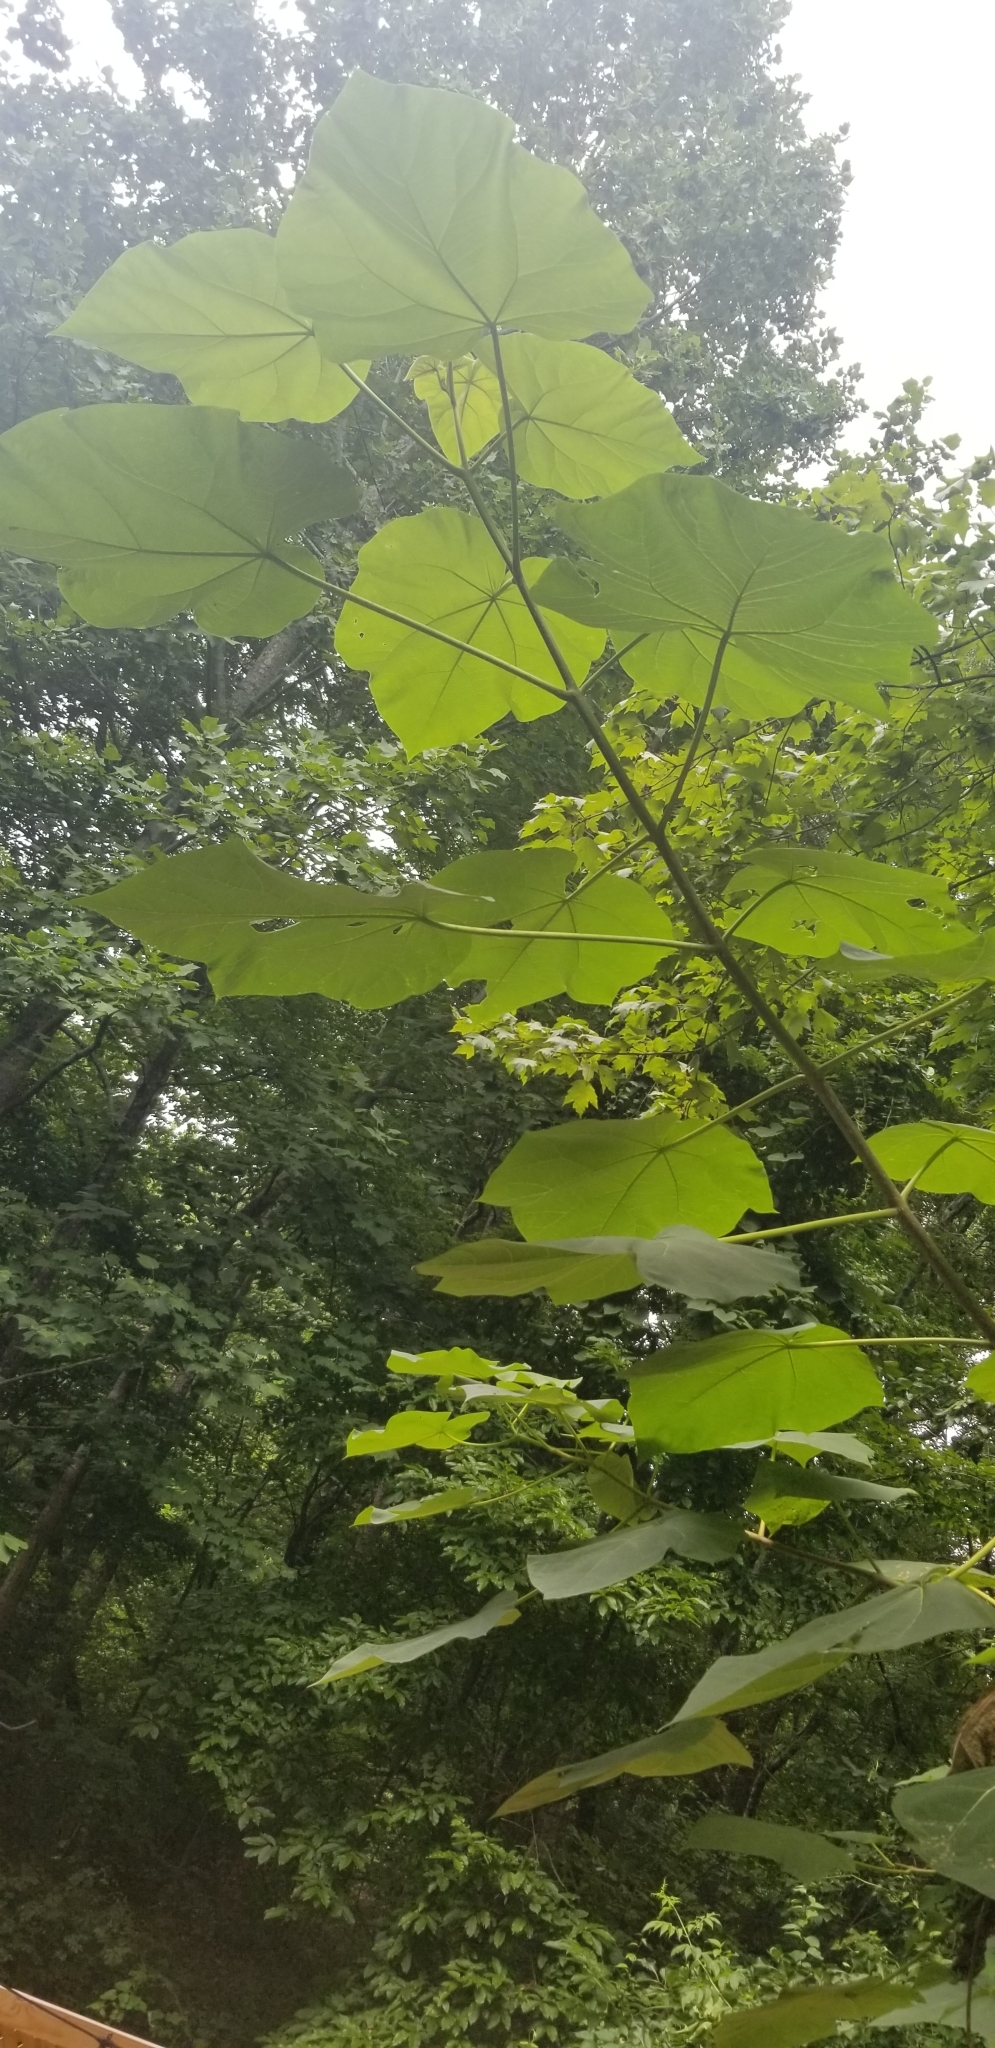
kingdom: Plantae
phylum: Tracheophyta
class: Magnoliopsida
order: Lamiales
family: Paulowniaceae
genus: Paulownia
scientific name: Paulownia tomentosa
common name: Foxglove-tree
